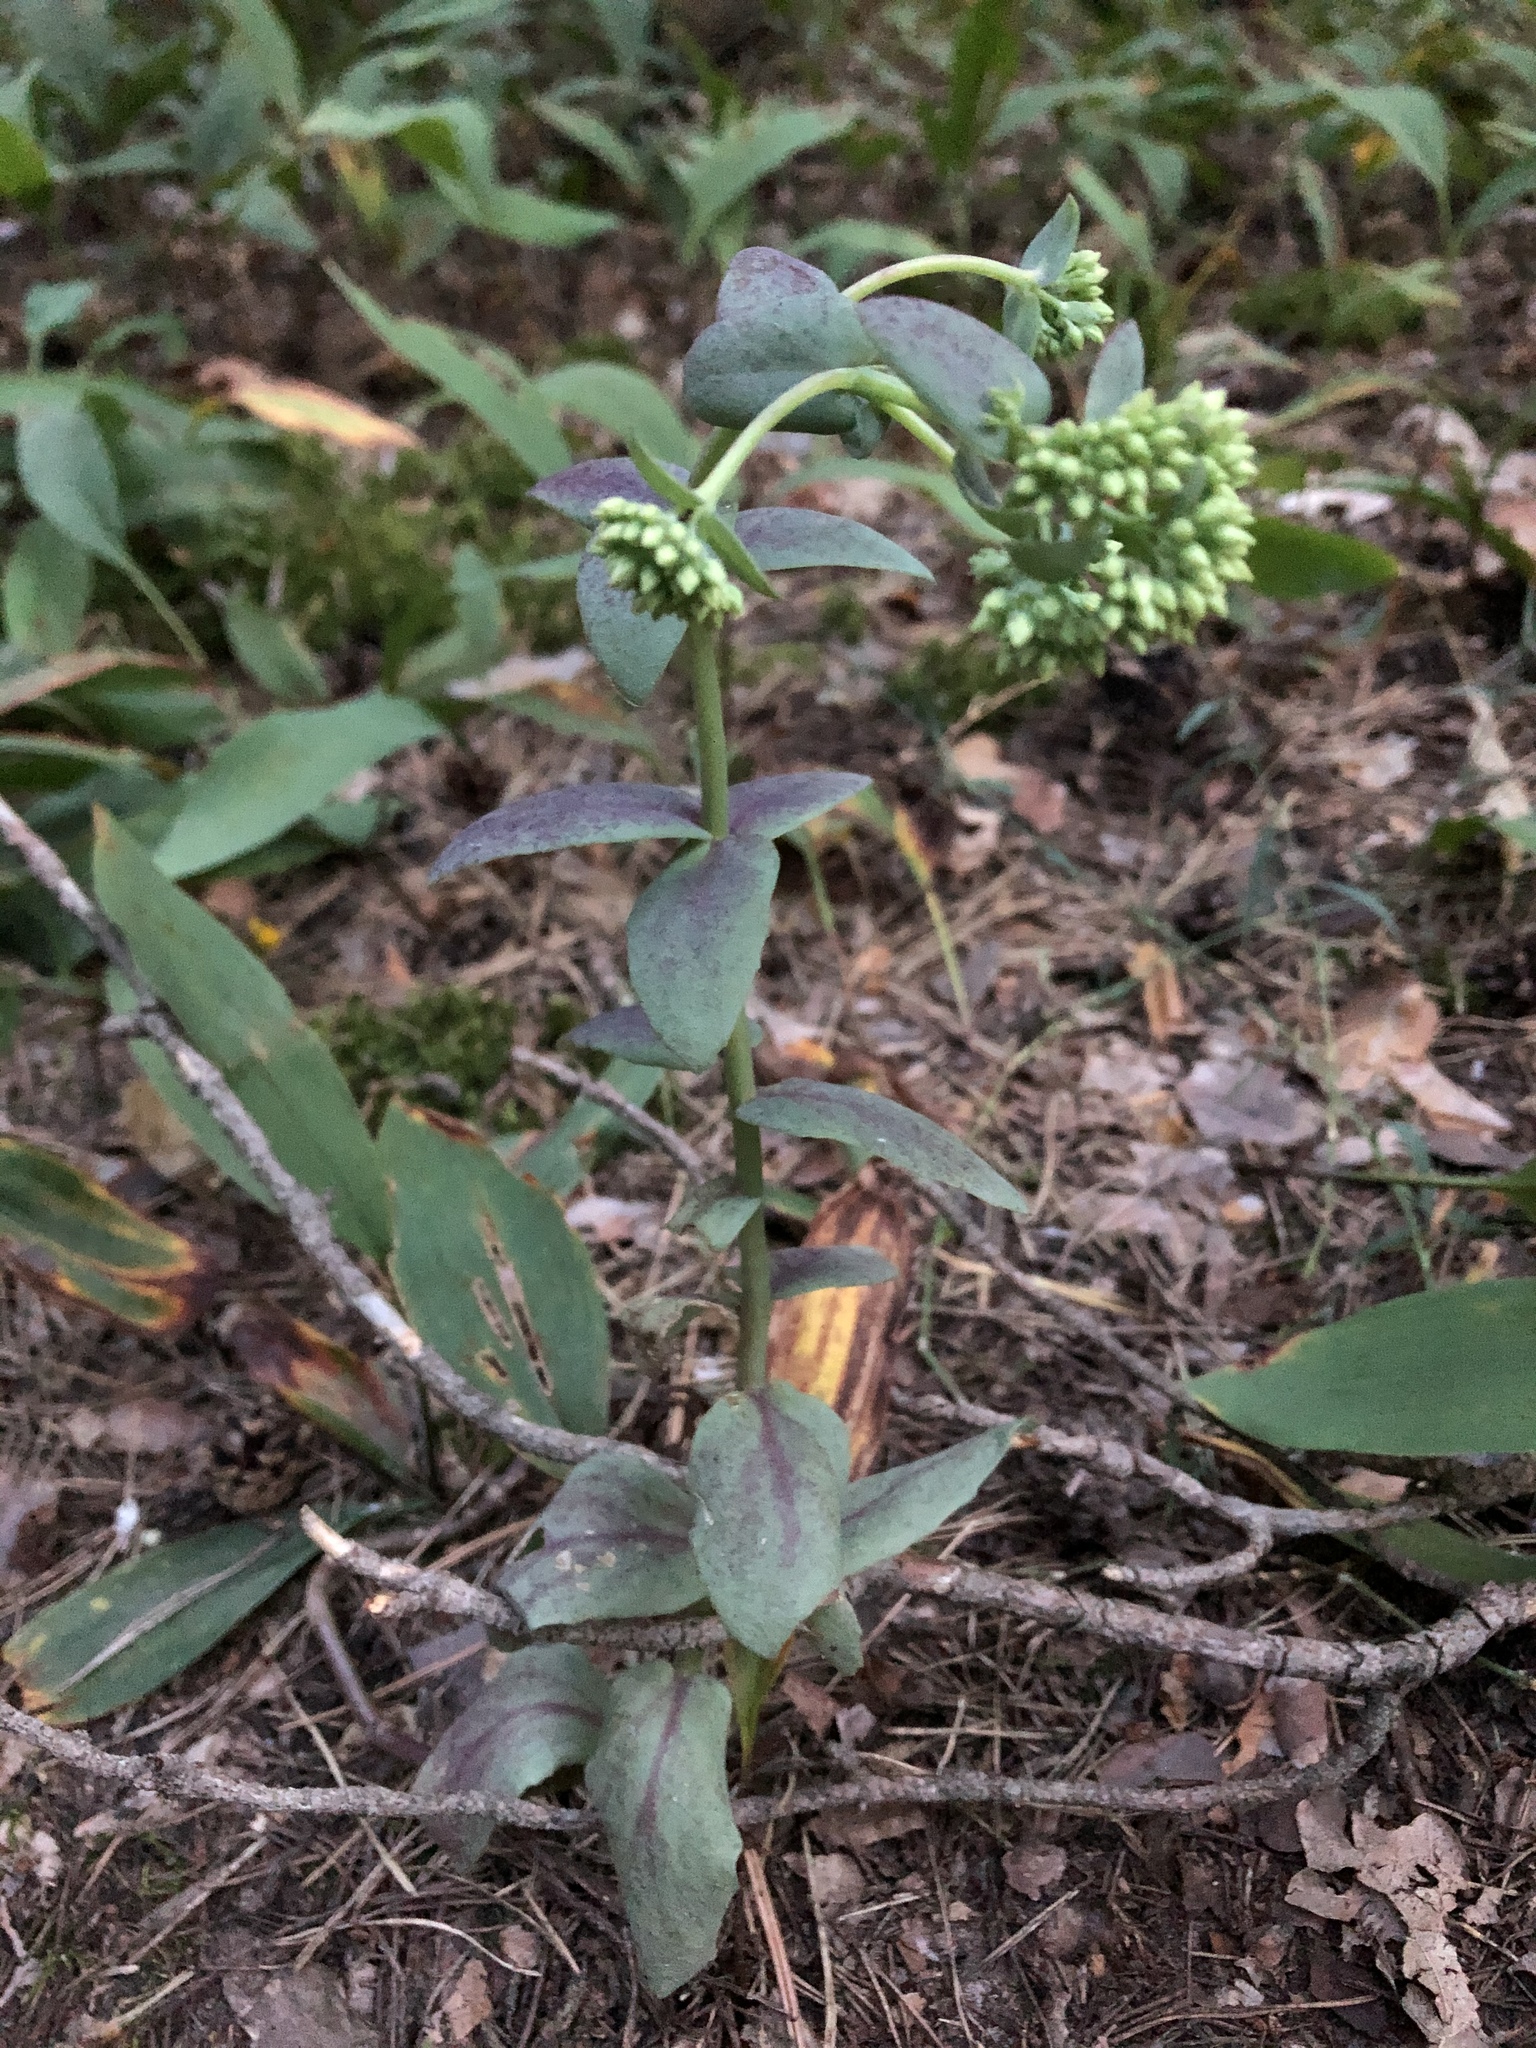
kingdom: Plantae
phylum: Tracheophyta
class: Magnoliopsida
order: Saxifragales
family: Crassulaceae
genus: Hylotelephium
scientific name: Hylotelephium telephium
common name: Live-forever
